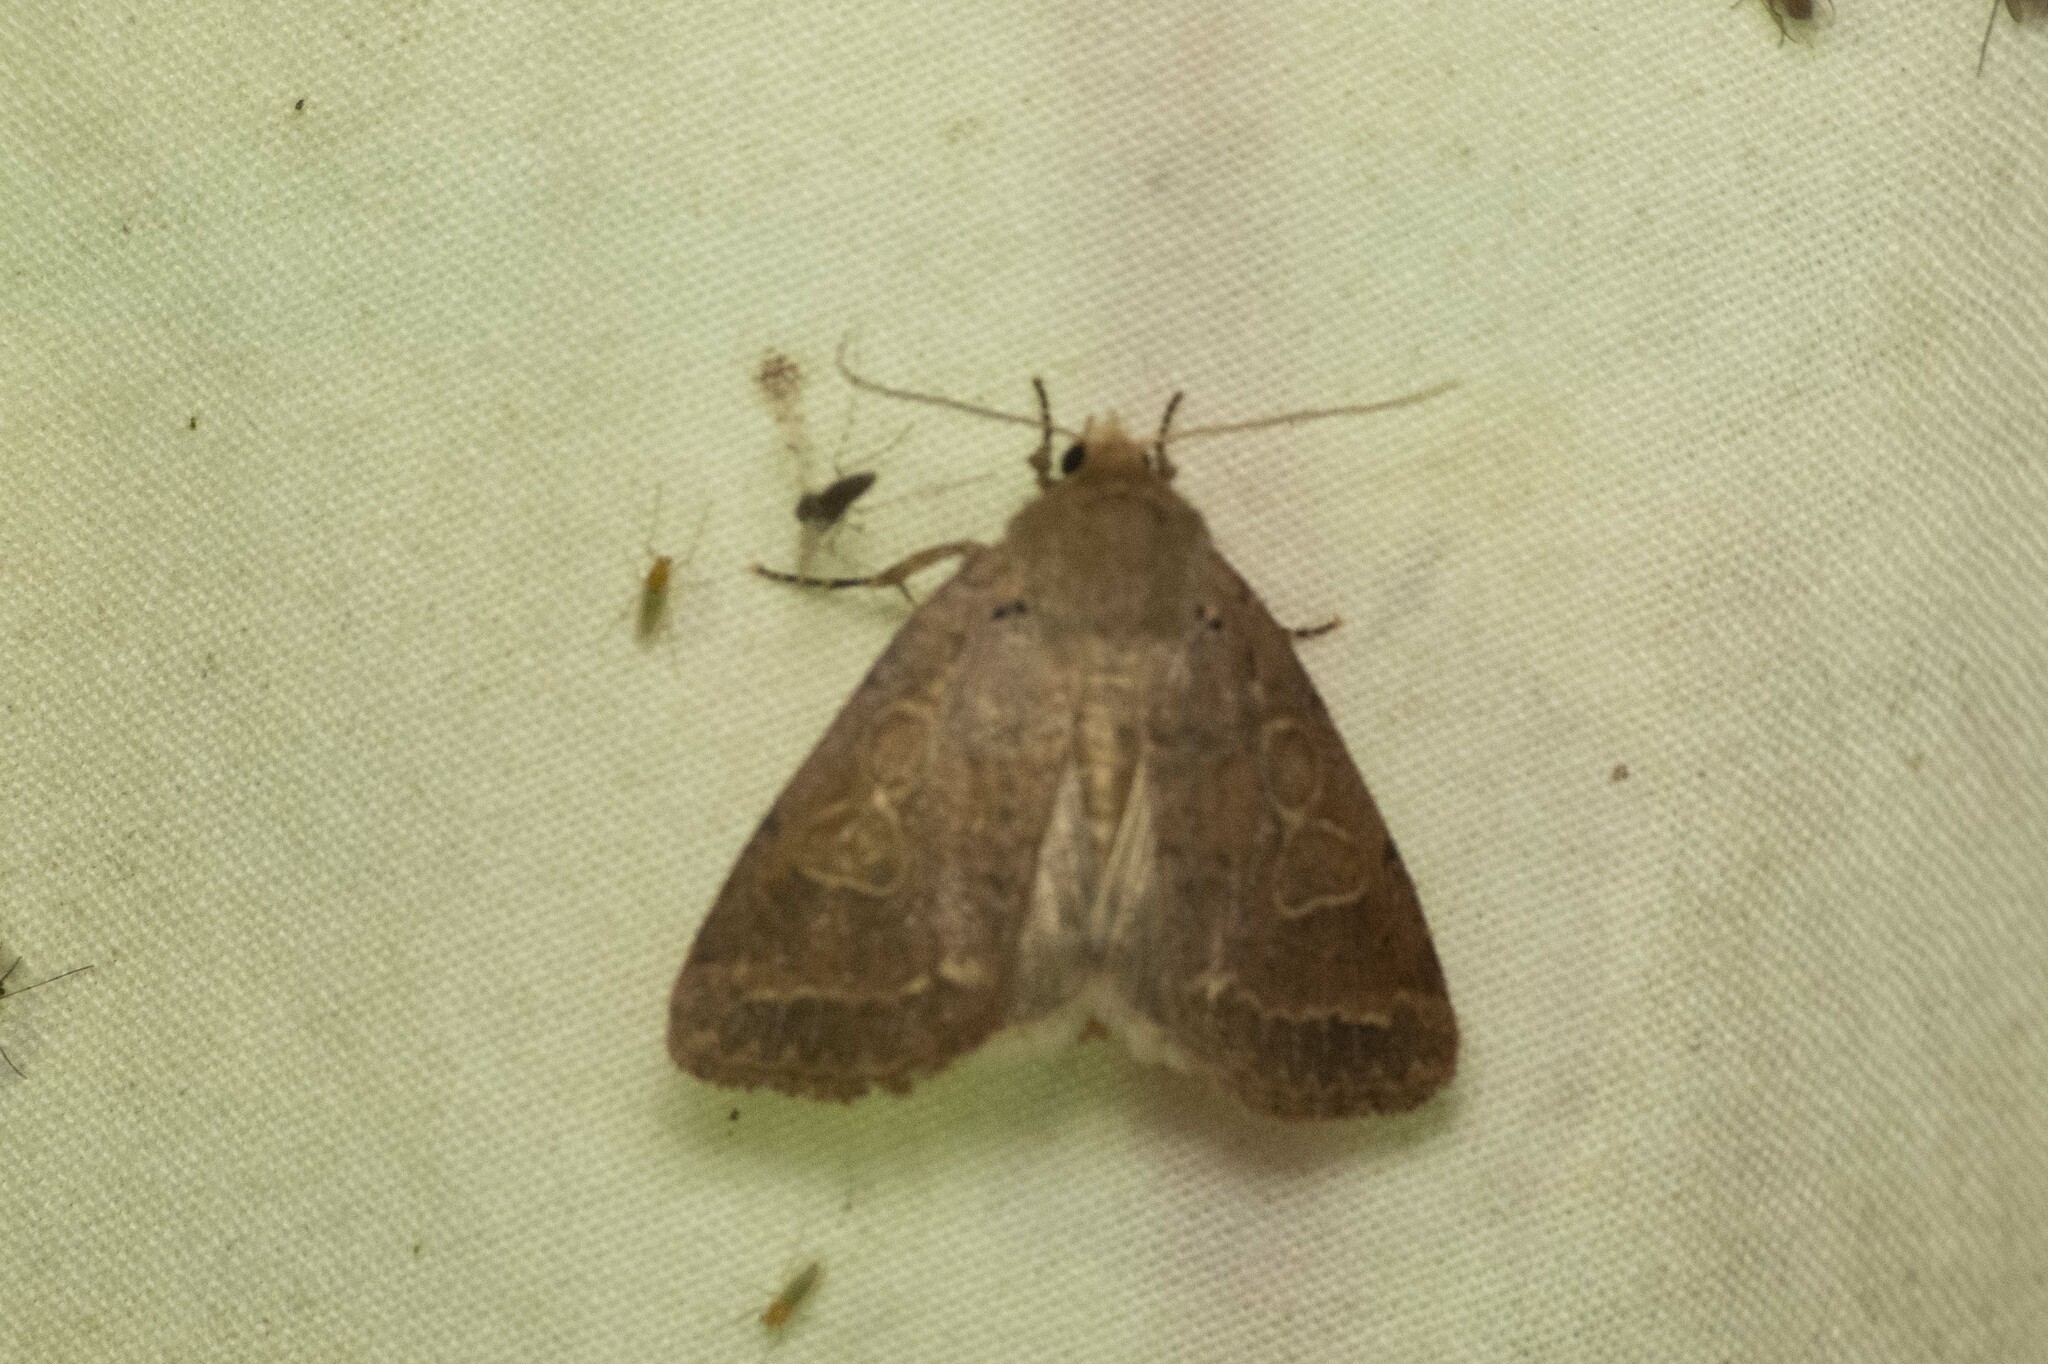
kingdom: Animalia
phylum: Arthropoda
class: Insecta
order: Lepidoptera
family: Noctuidae
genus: Kocakina
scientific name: Kocakina fidelis
